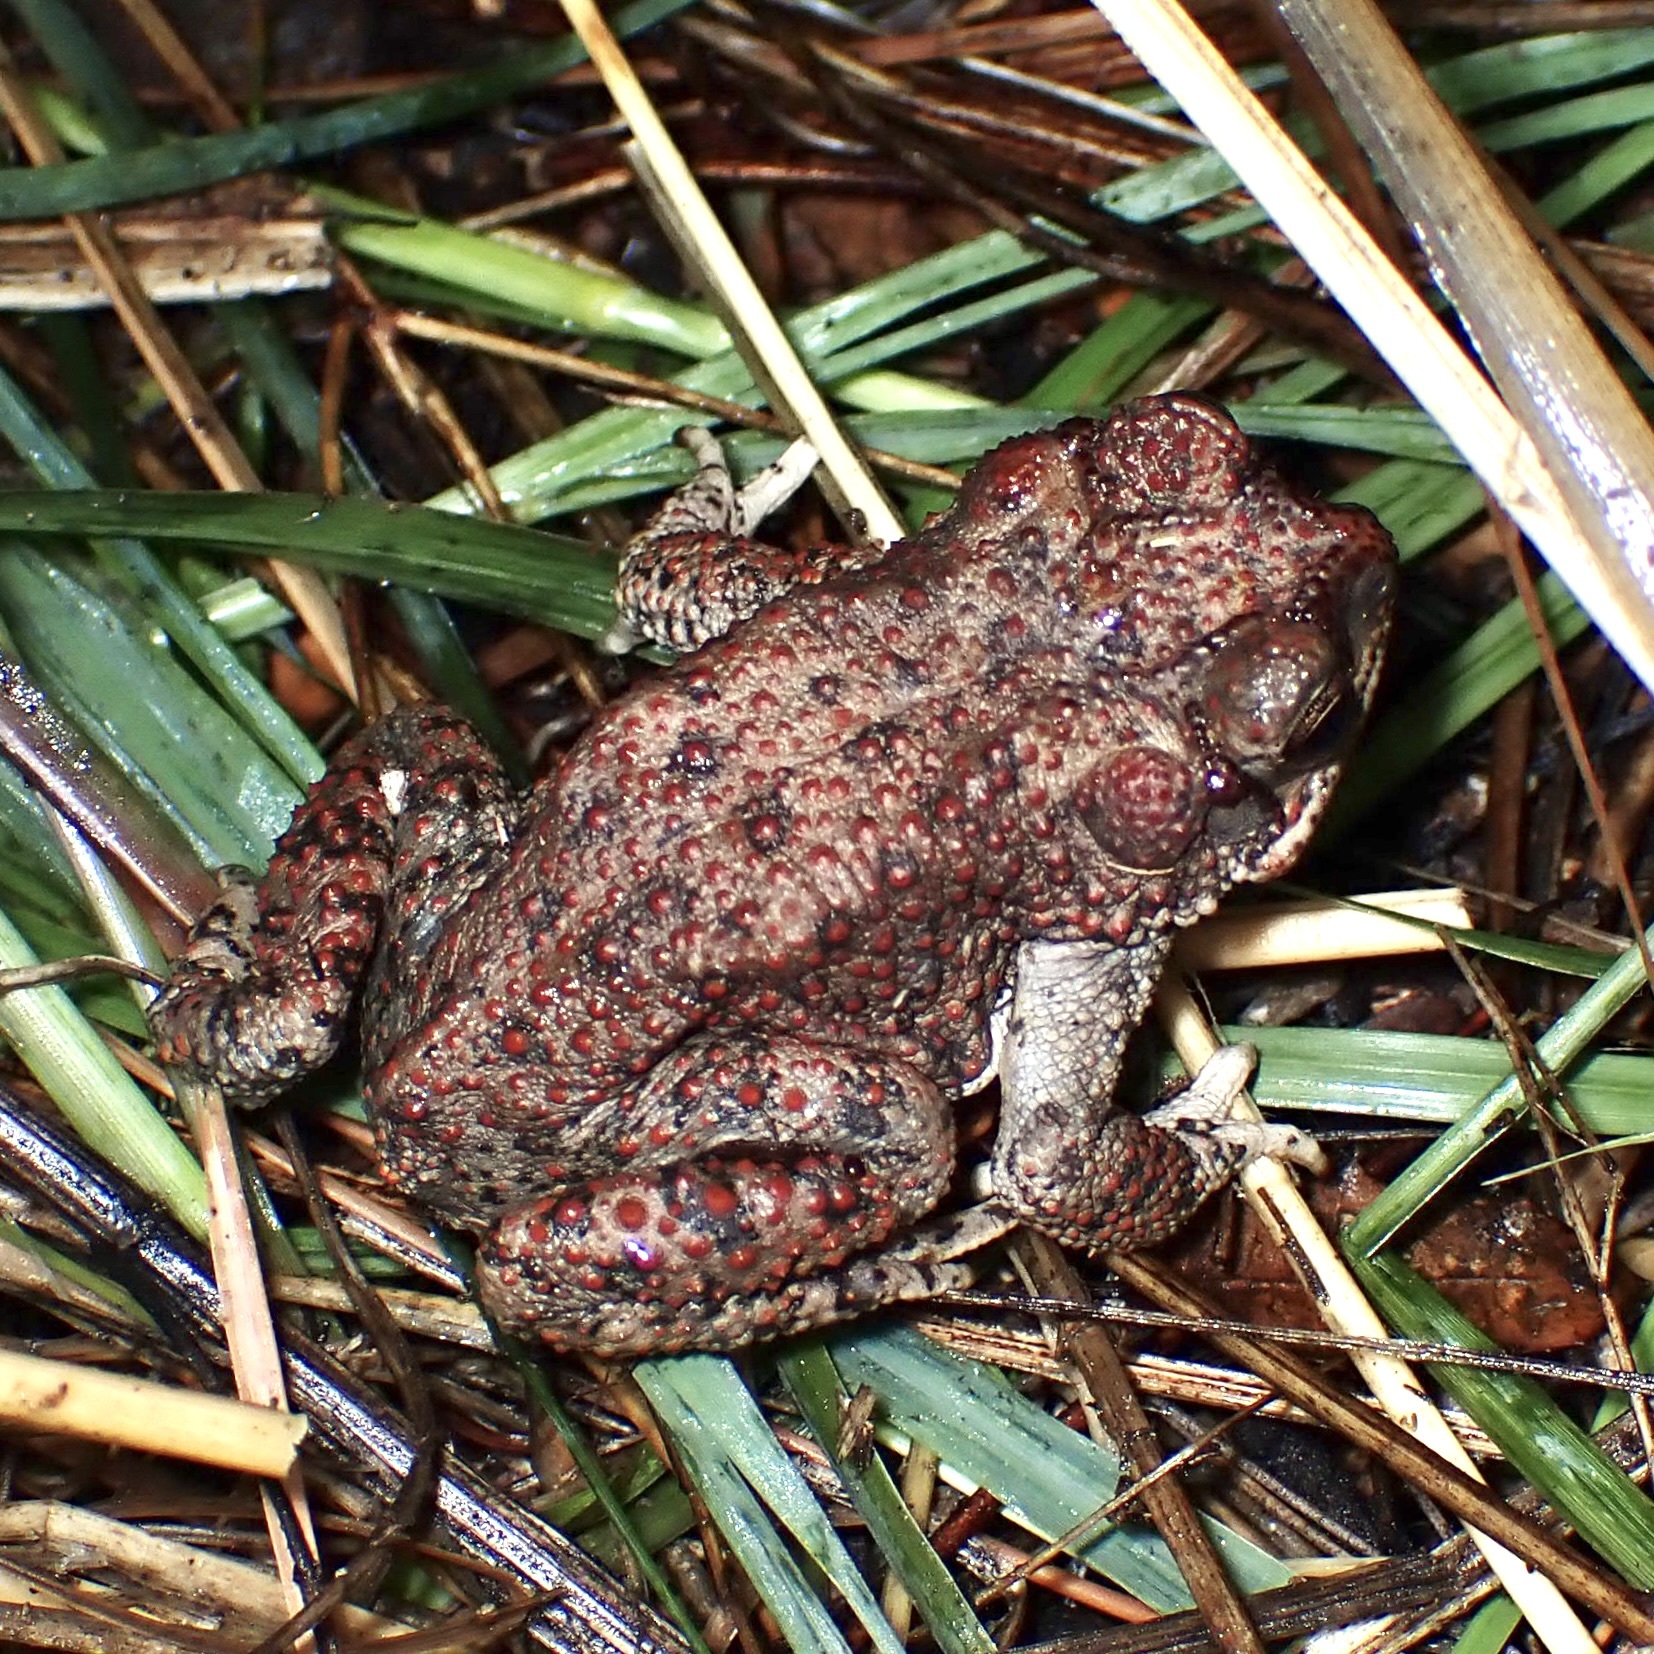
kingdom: Animalia
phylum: Chordata
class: Amphibia
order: Anura
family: Bufonidae
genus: Anaxyrus
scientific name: Anaxyrus punctatus
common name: Red-spotted toad
